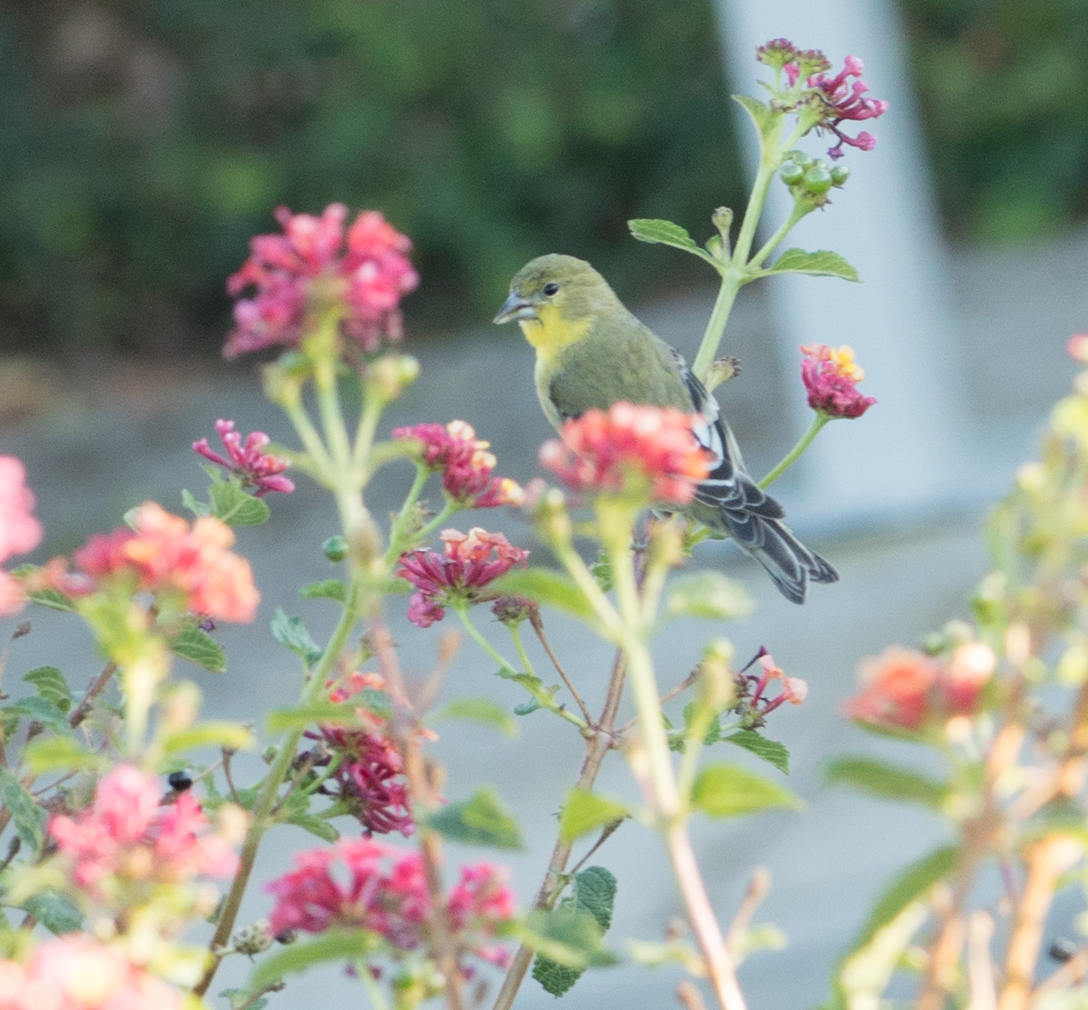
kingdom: Animalia
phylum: Chordata
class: Aves
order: Passeriformes
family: Fringillidae
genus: Spinus
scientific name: Spinus psaltria
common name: Lesser goldfinch
